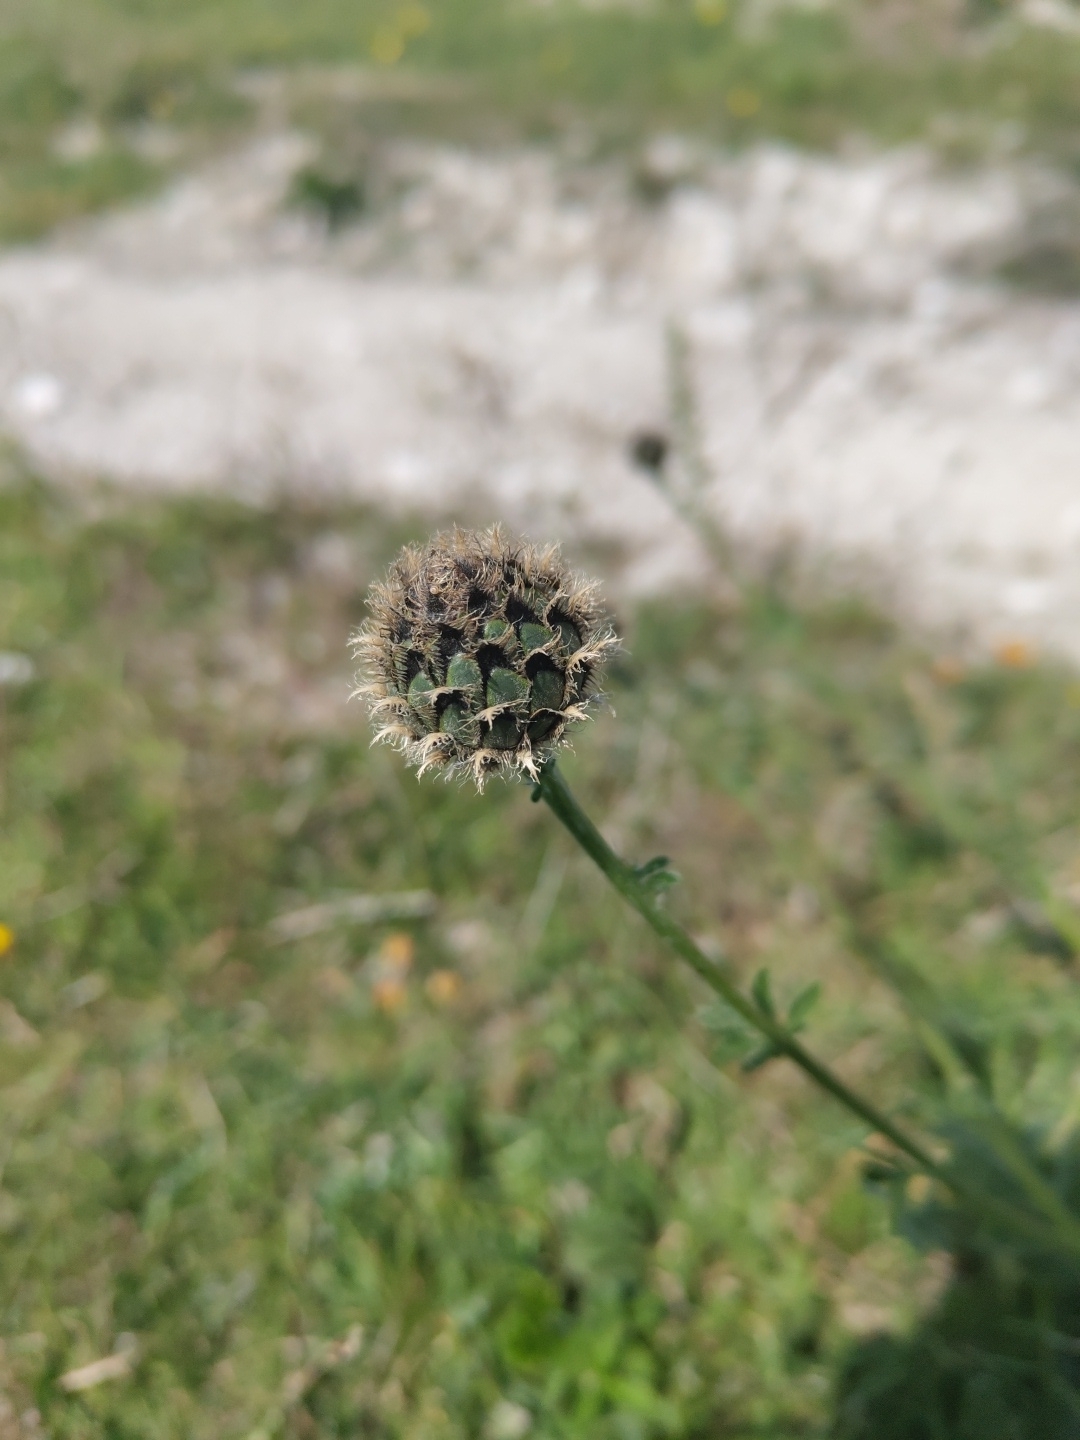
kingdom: Plantae
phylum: Tracheophyta
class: Magnoliopsida
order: Asterales
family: Asteraceae
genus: Centaurea
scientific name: Centaurea scabiosa
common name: Greater knapweed
